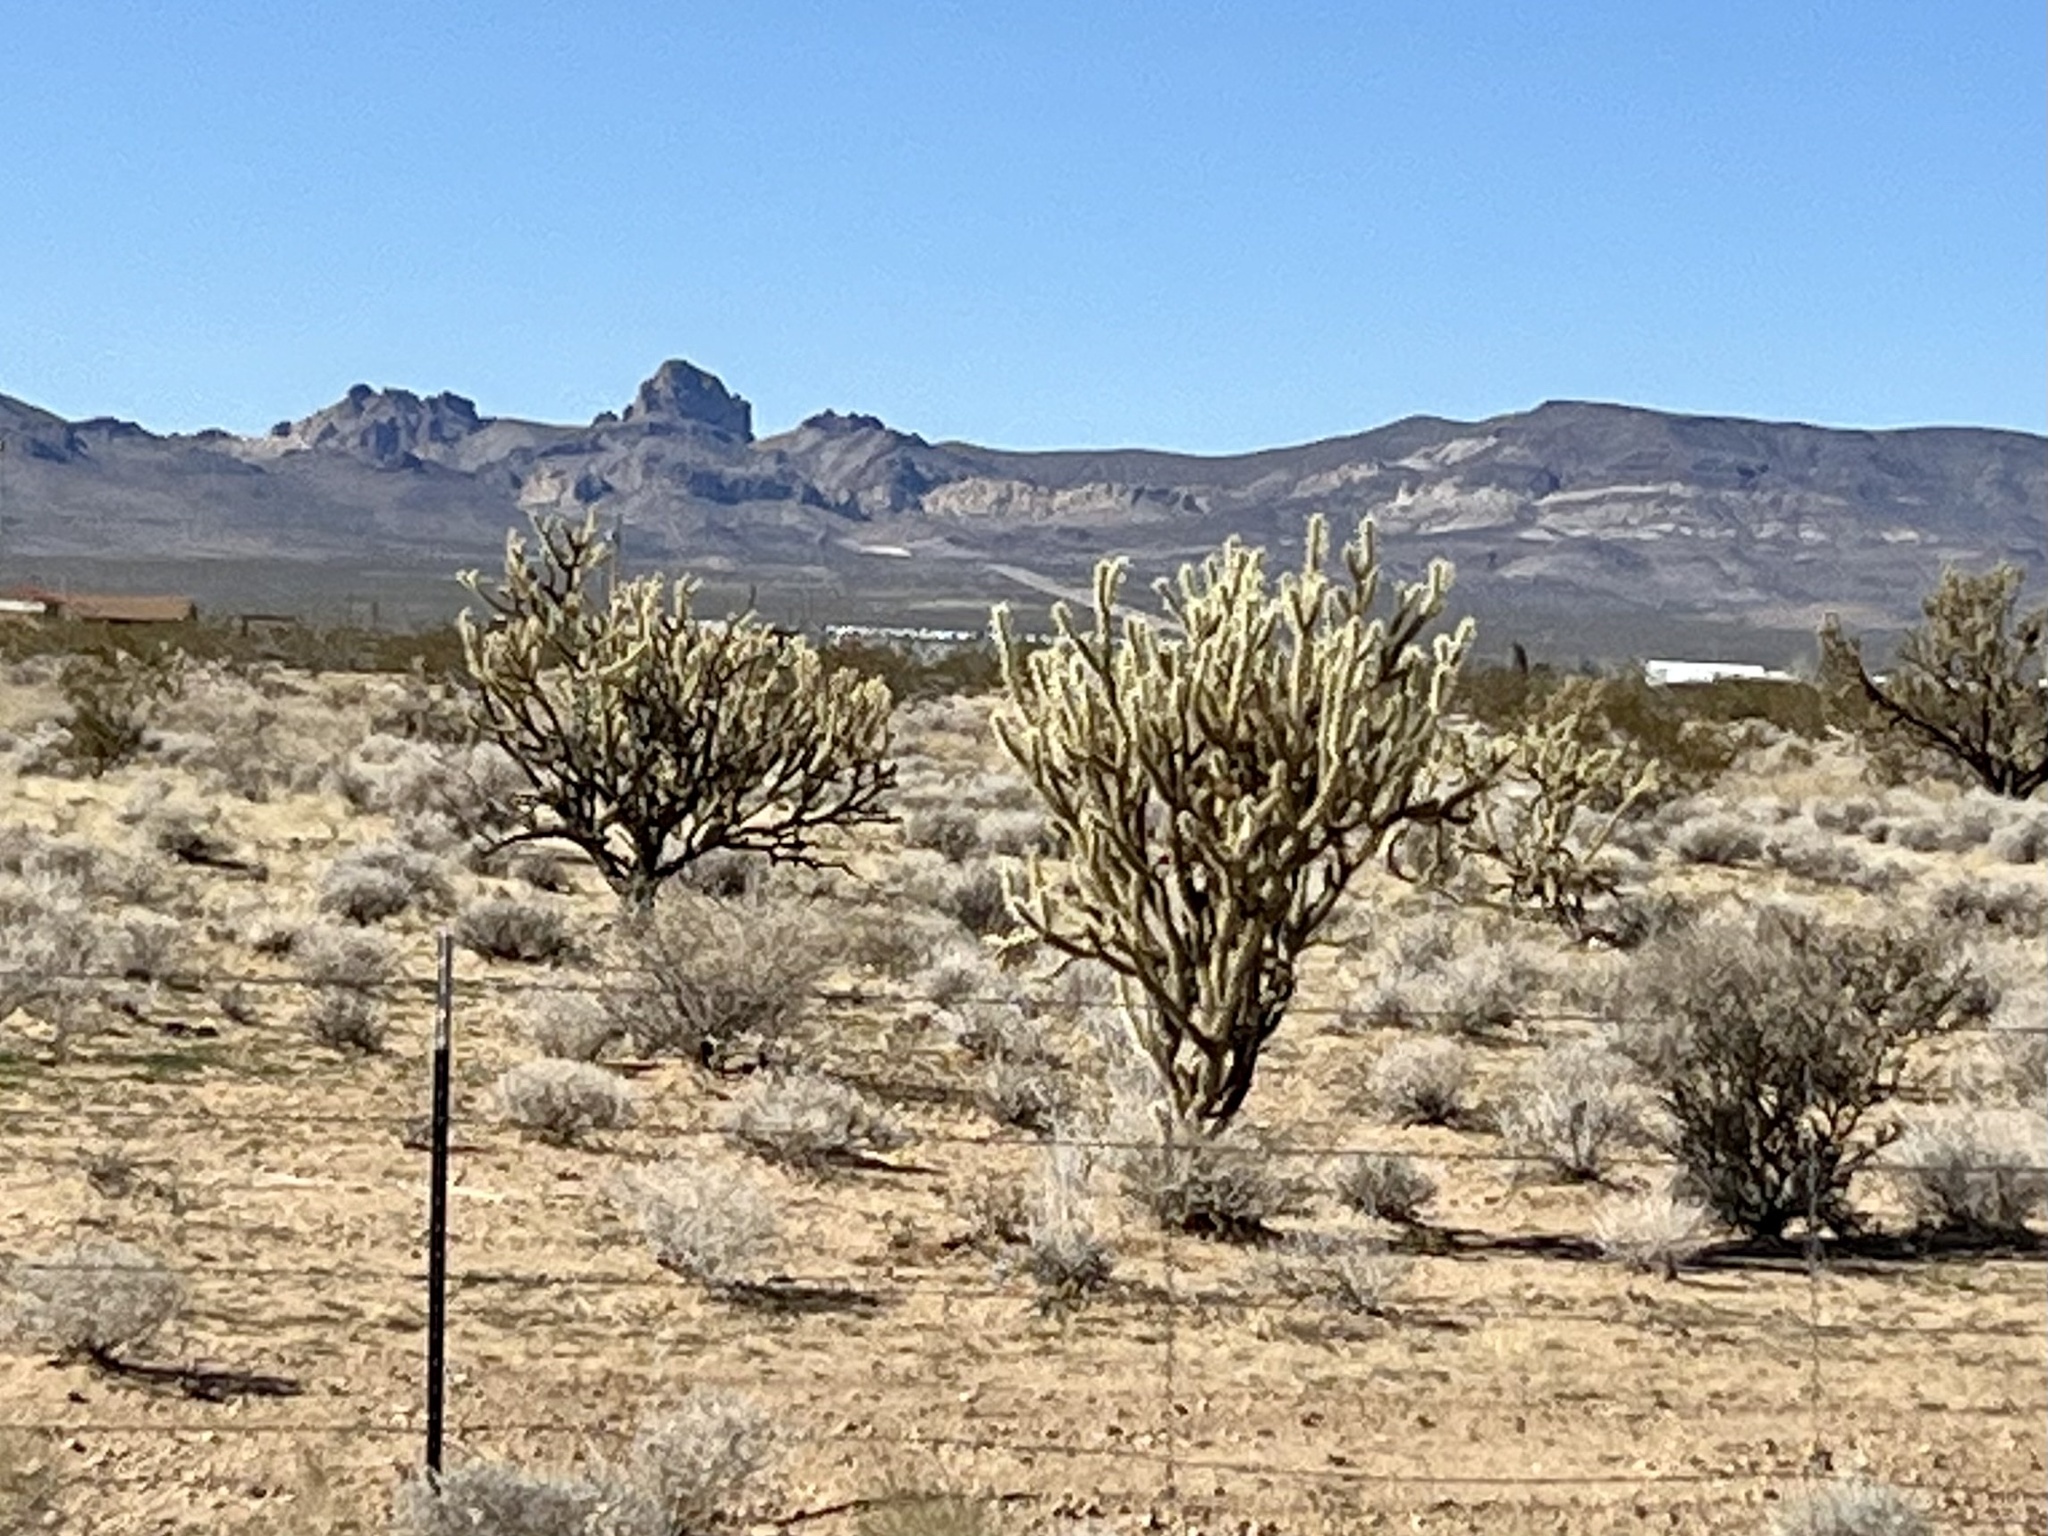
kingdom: Plantae
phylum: Tracheophyta
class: Magnoliopsida
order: Caryophyllales
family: Cactaceae
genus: Cylindropuntia
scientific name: Cylindropuntia acanthocarpa
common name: Buckhorn cholla
